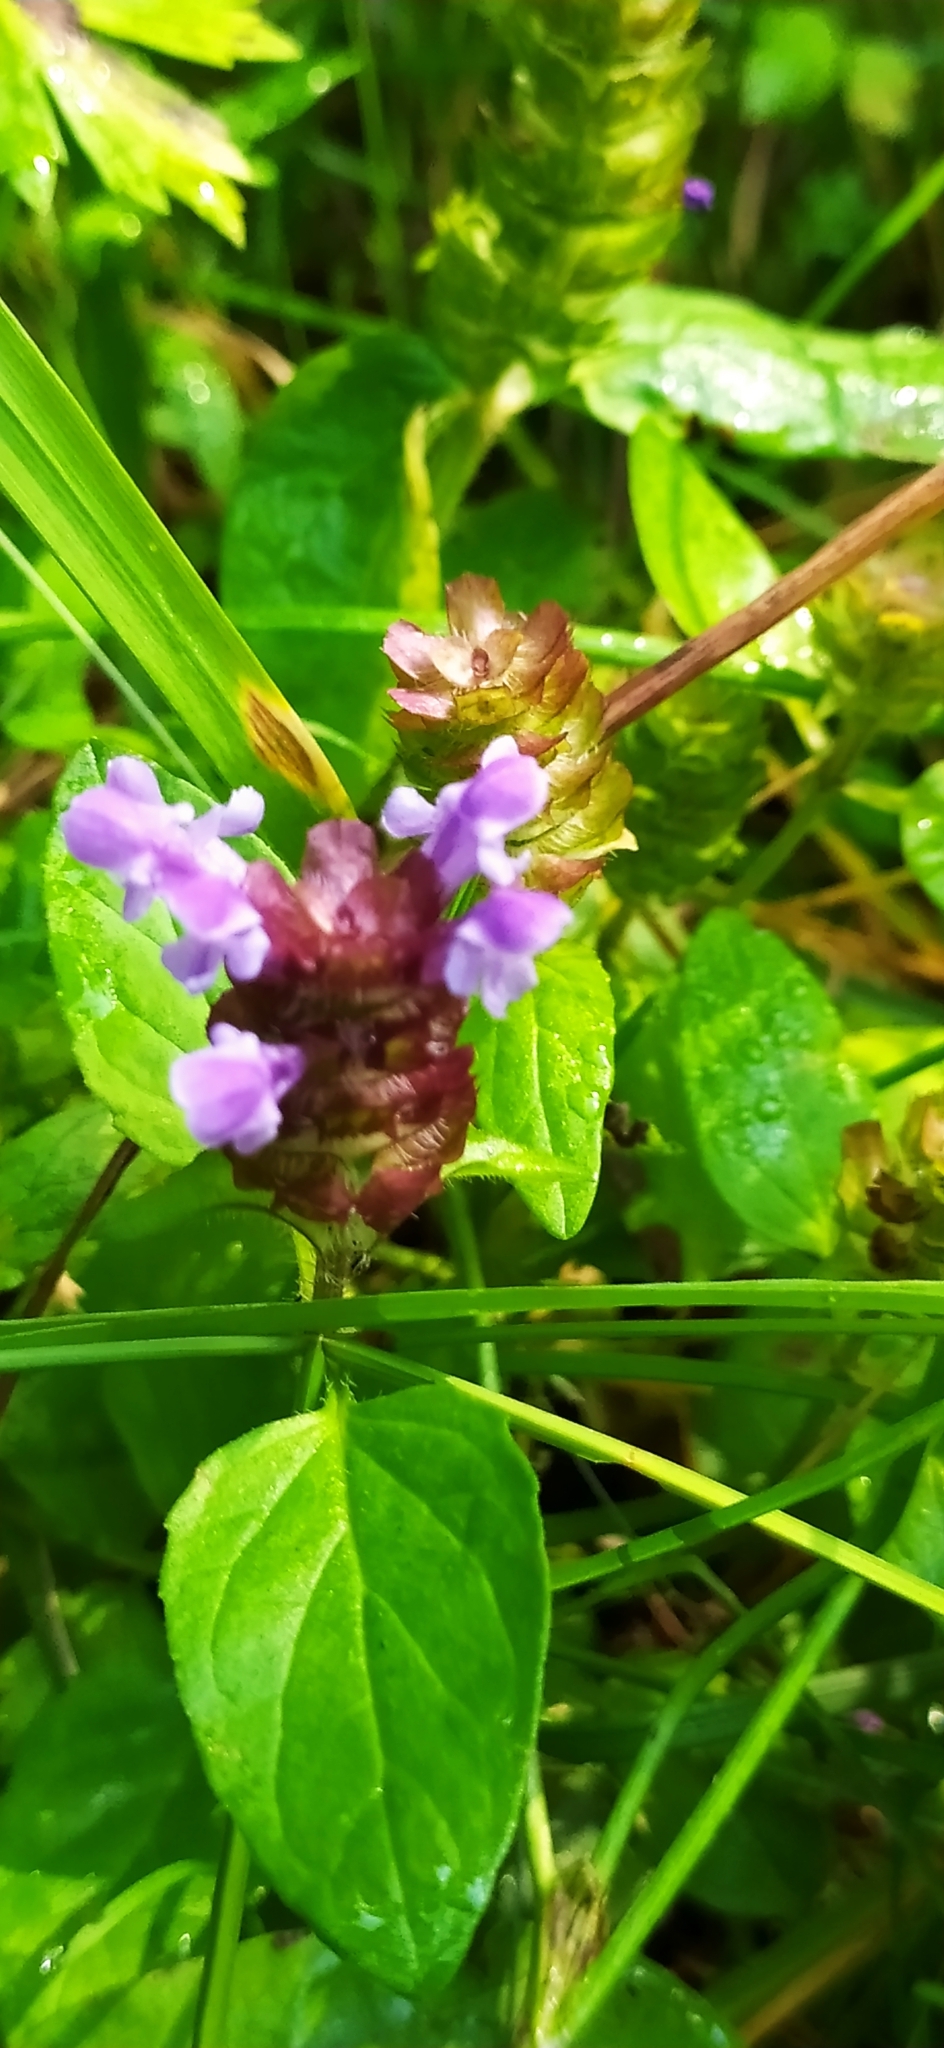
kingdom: Plantae
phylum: Tracheophyta
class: Magnoliopsida
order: Lamiales
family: Lamiaceae
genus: Prunella
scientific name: Prunella vulgaris
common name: Heal-all
